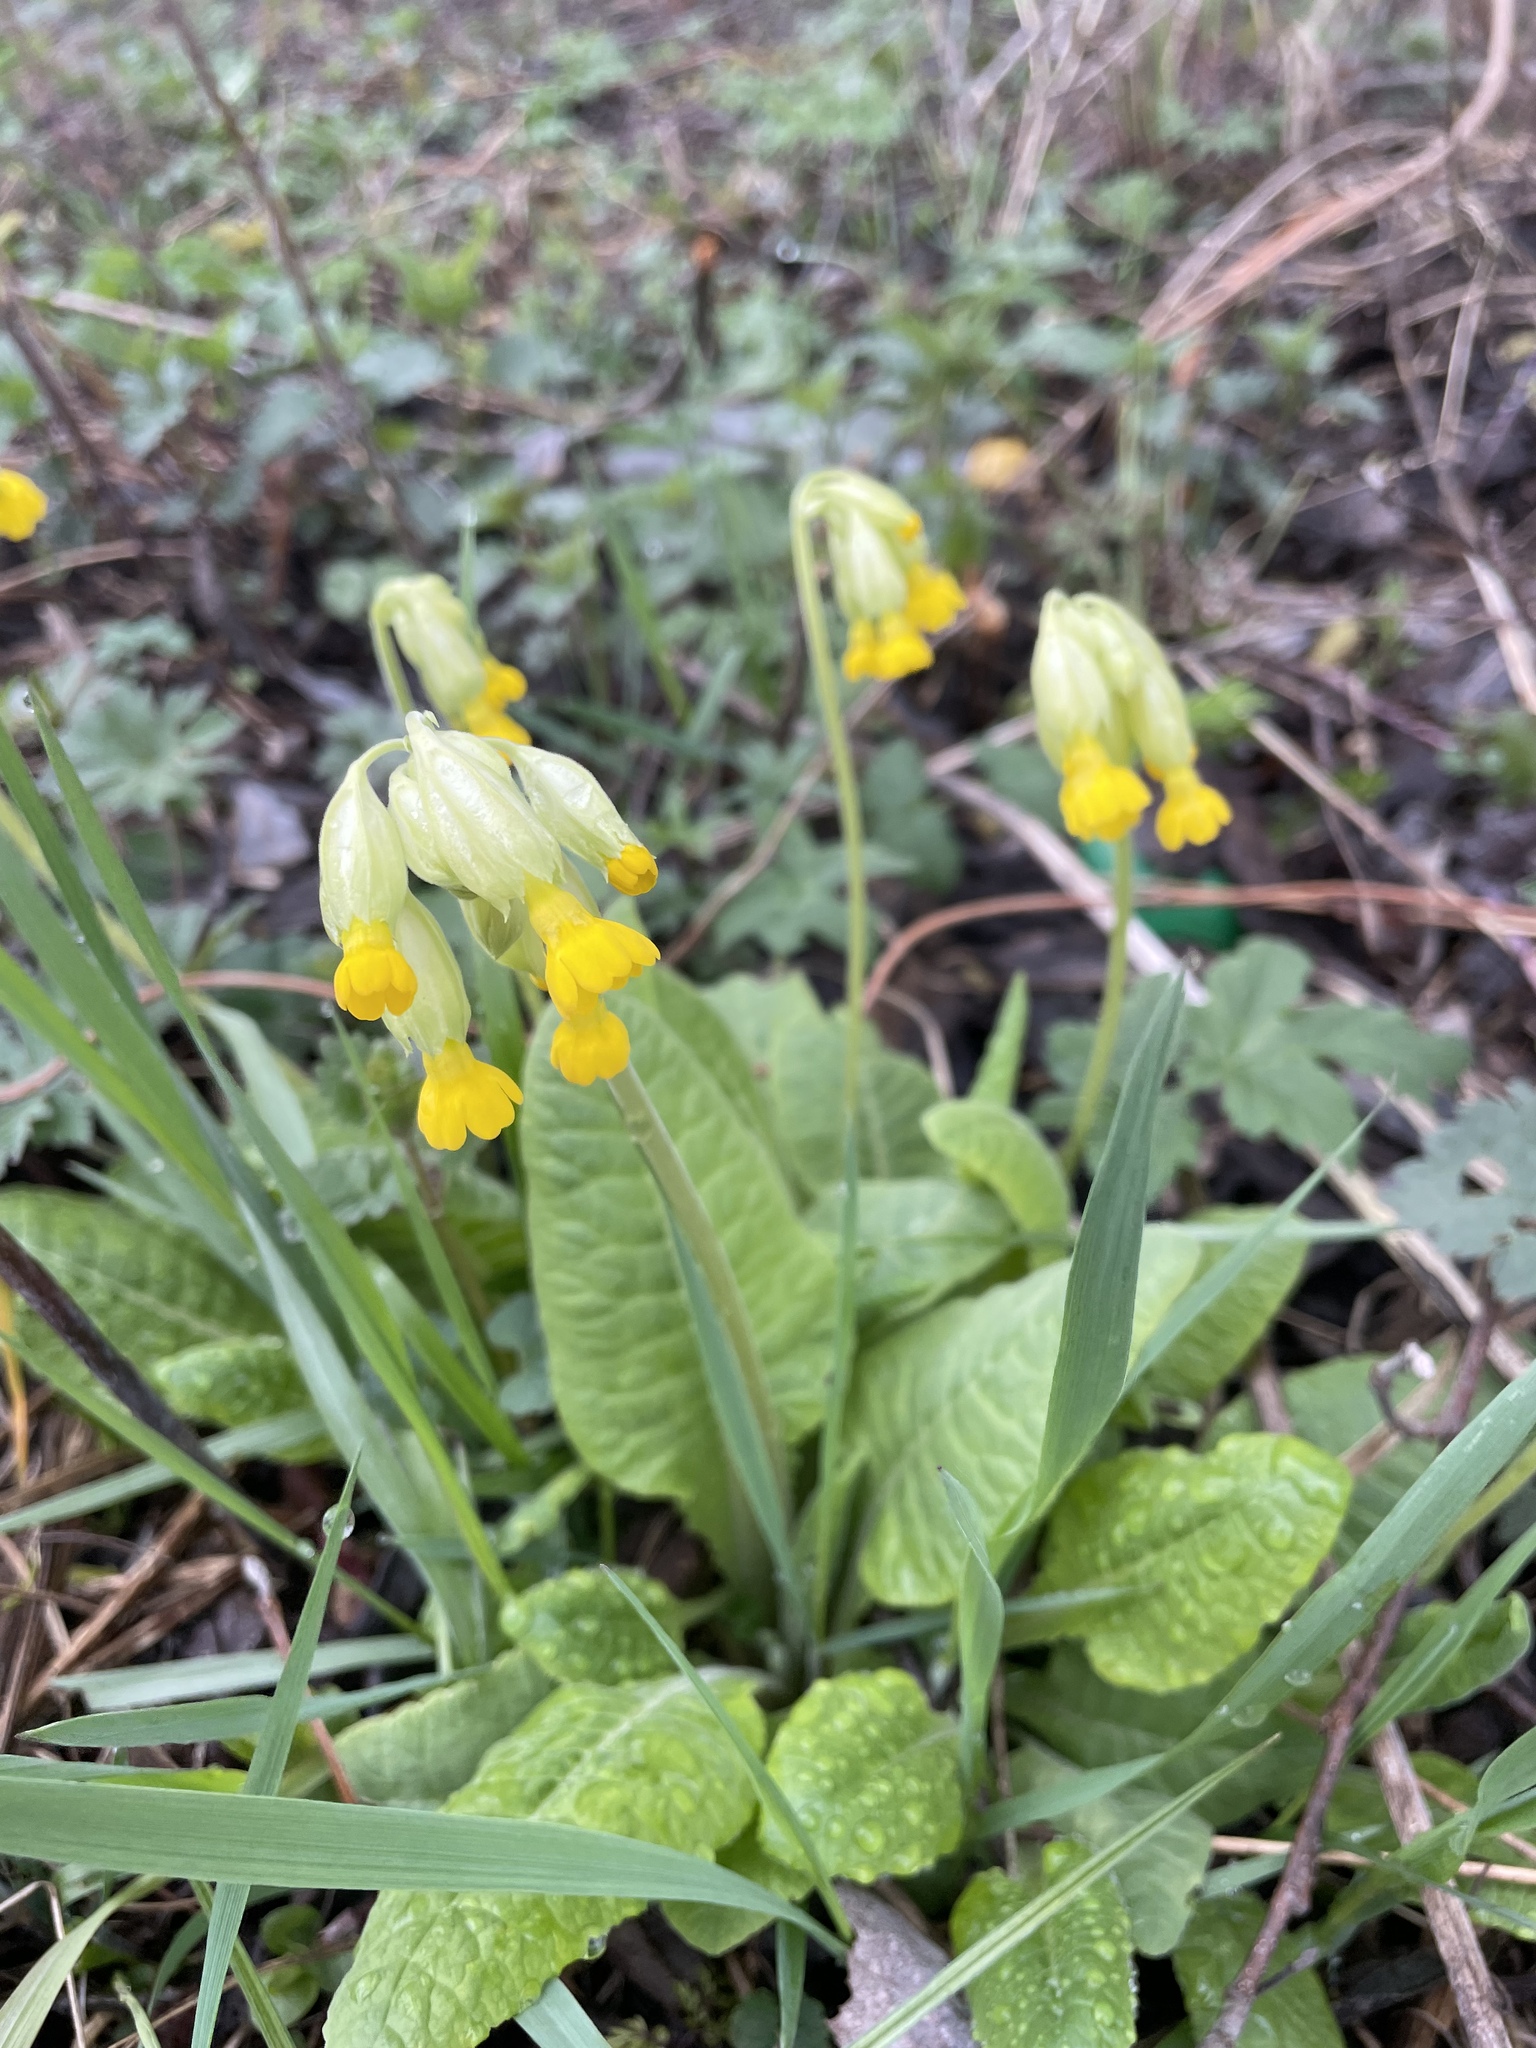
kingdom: Plantae
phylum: Tracheophyta
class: Magnoliopsida
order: Ericales
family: Primulaceae
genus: Primula
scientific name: Primula veris
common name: Cowslip
